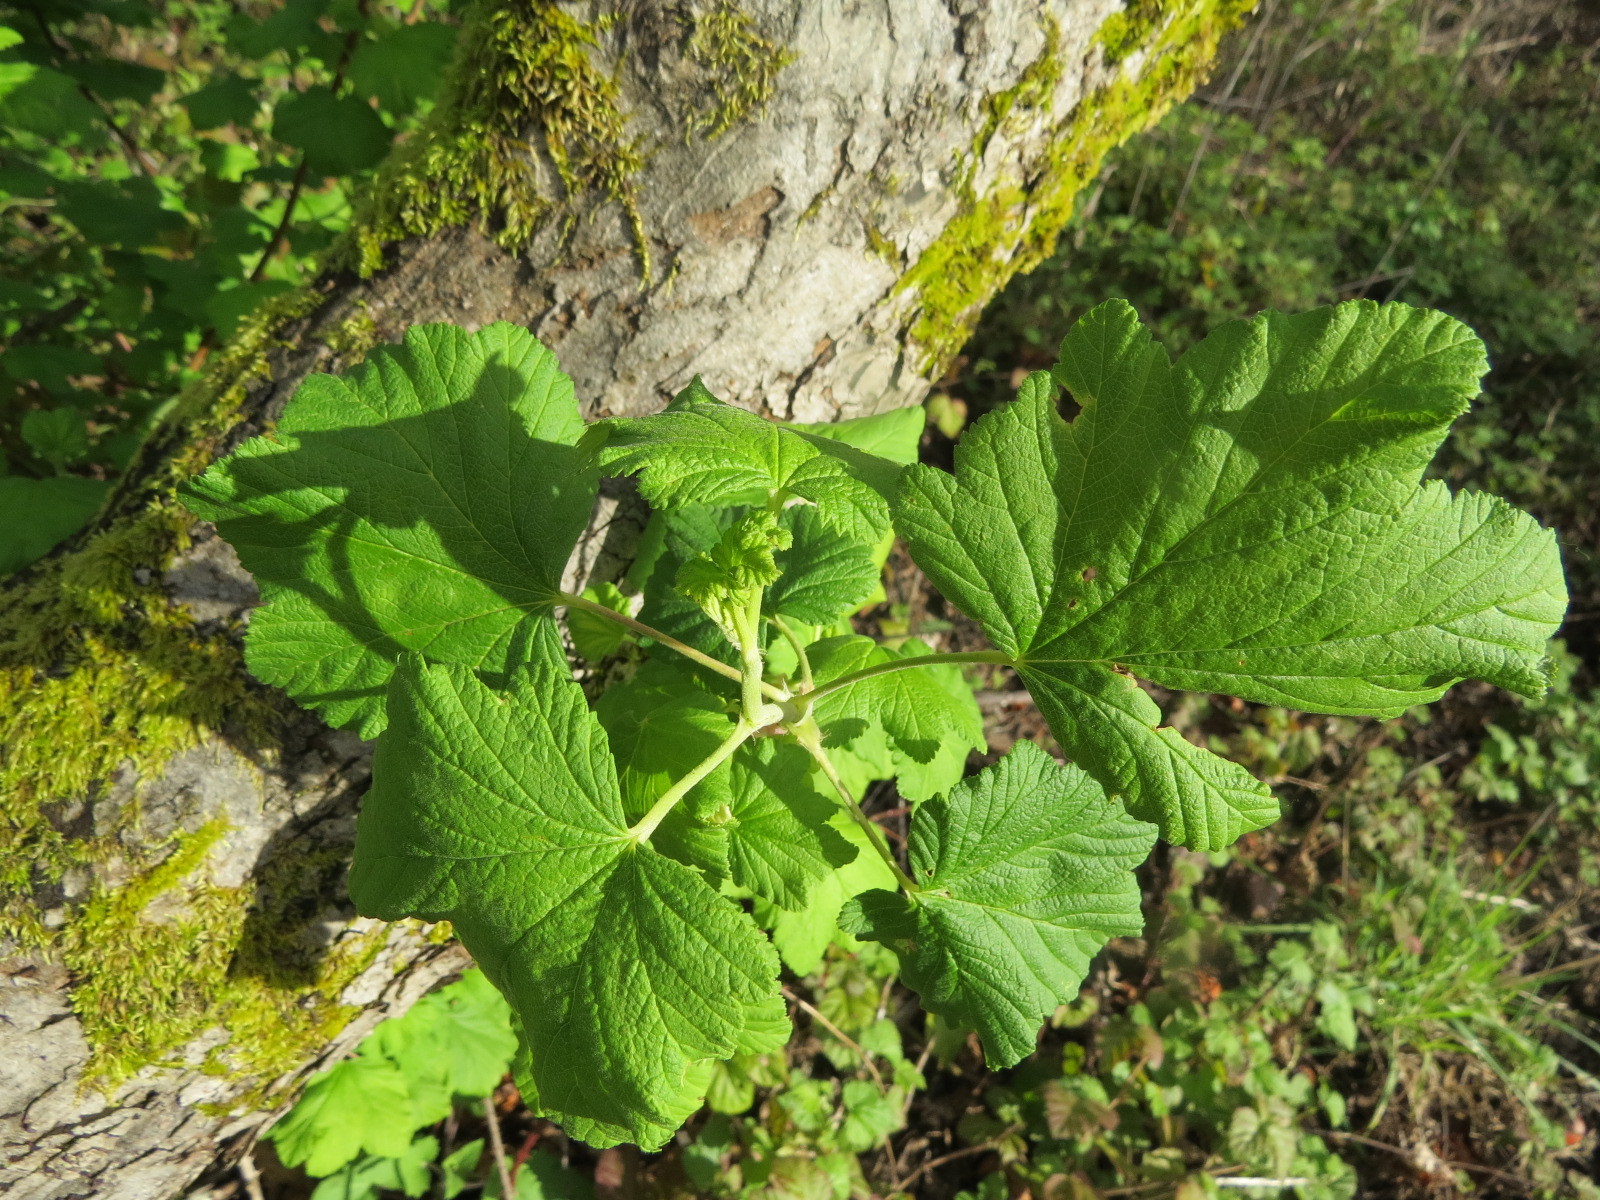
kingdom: Plantae
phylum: Tracheophyta
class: Magnoliopsida
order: Saxifragales
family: Grossulariaceae
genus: Ribes
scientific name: Ribes sanguineum
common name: Flowering currant
